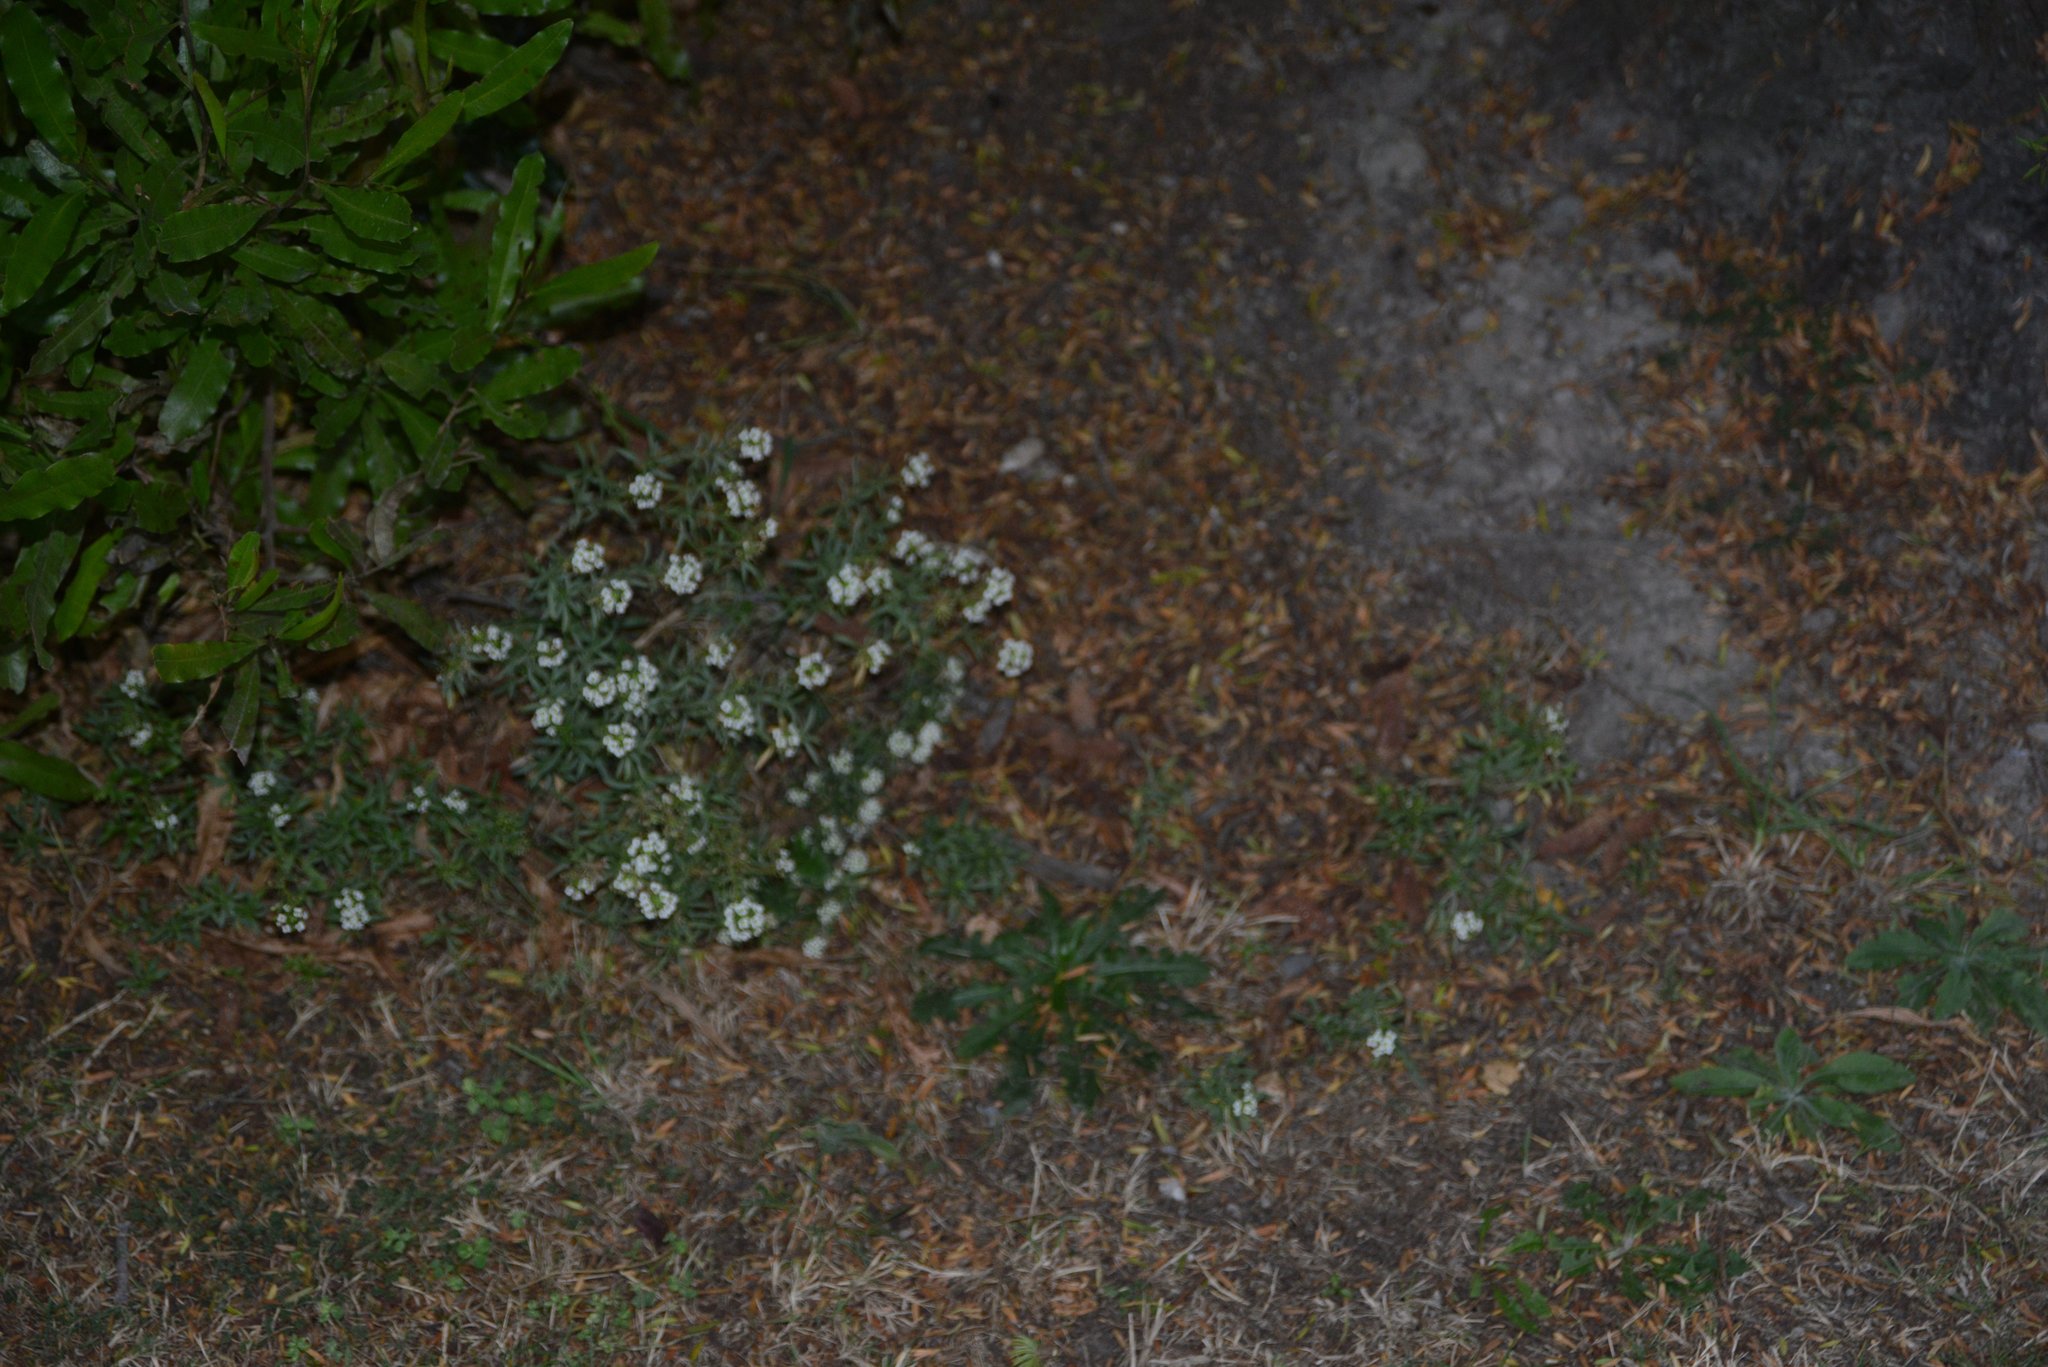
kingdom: Plantae
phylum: Tracheophyta
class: Magnoliopsida
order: Brassicales
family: Brassicaceae
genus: Lobularia
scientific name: Lobularia maritima
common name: Sweet alison
